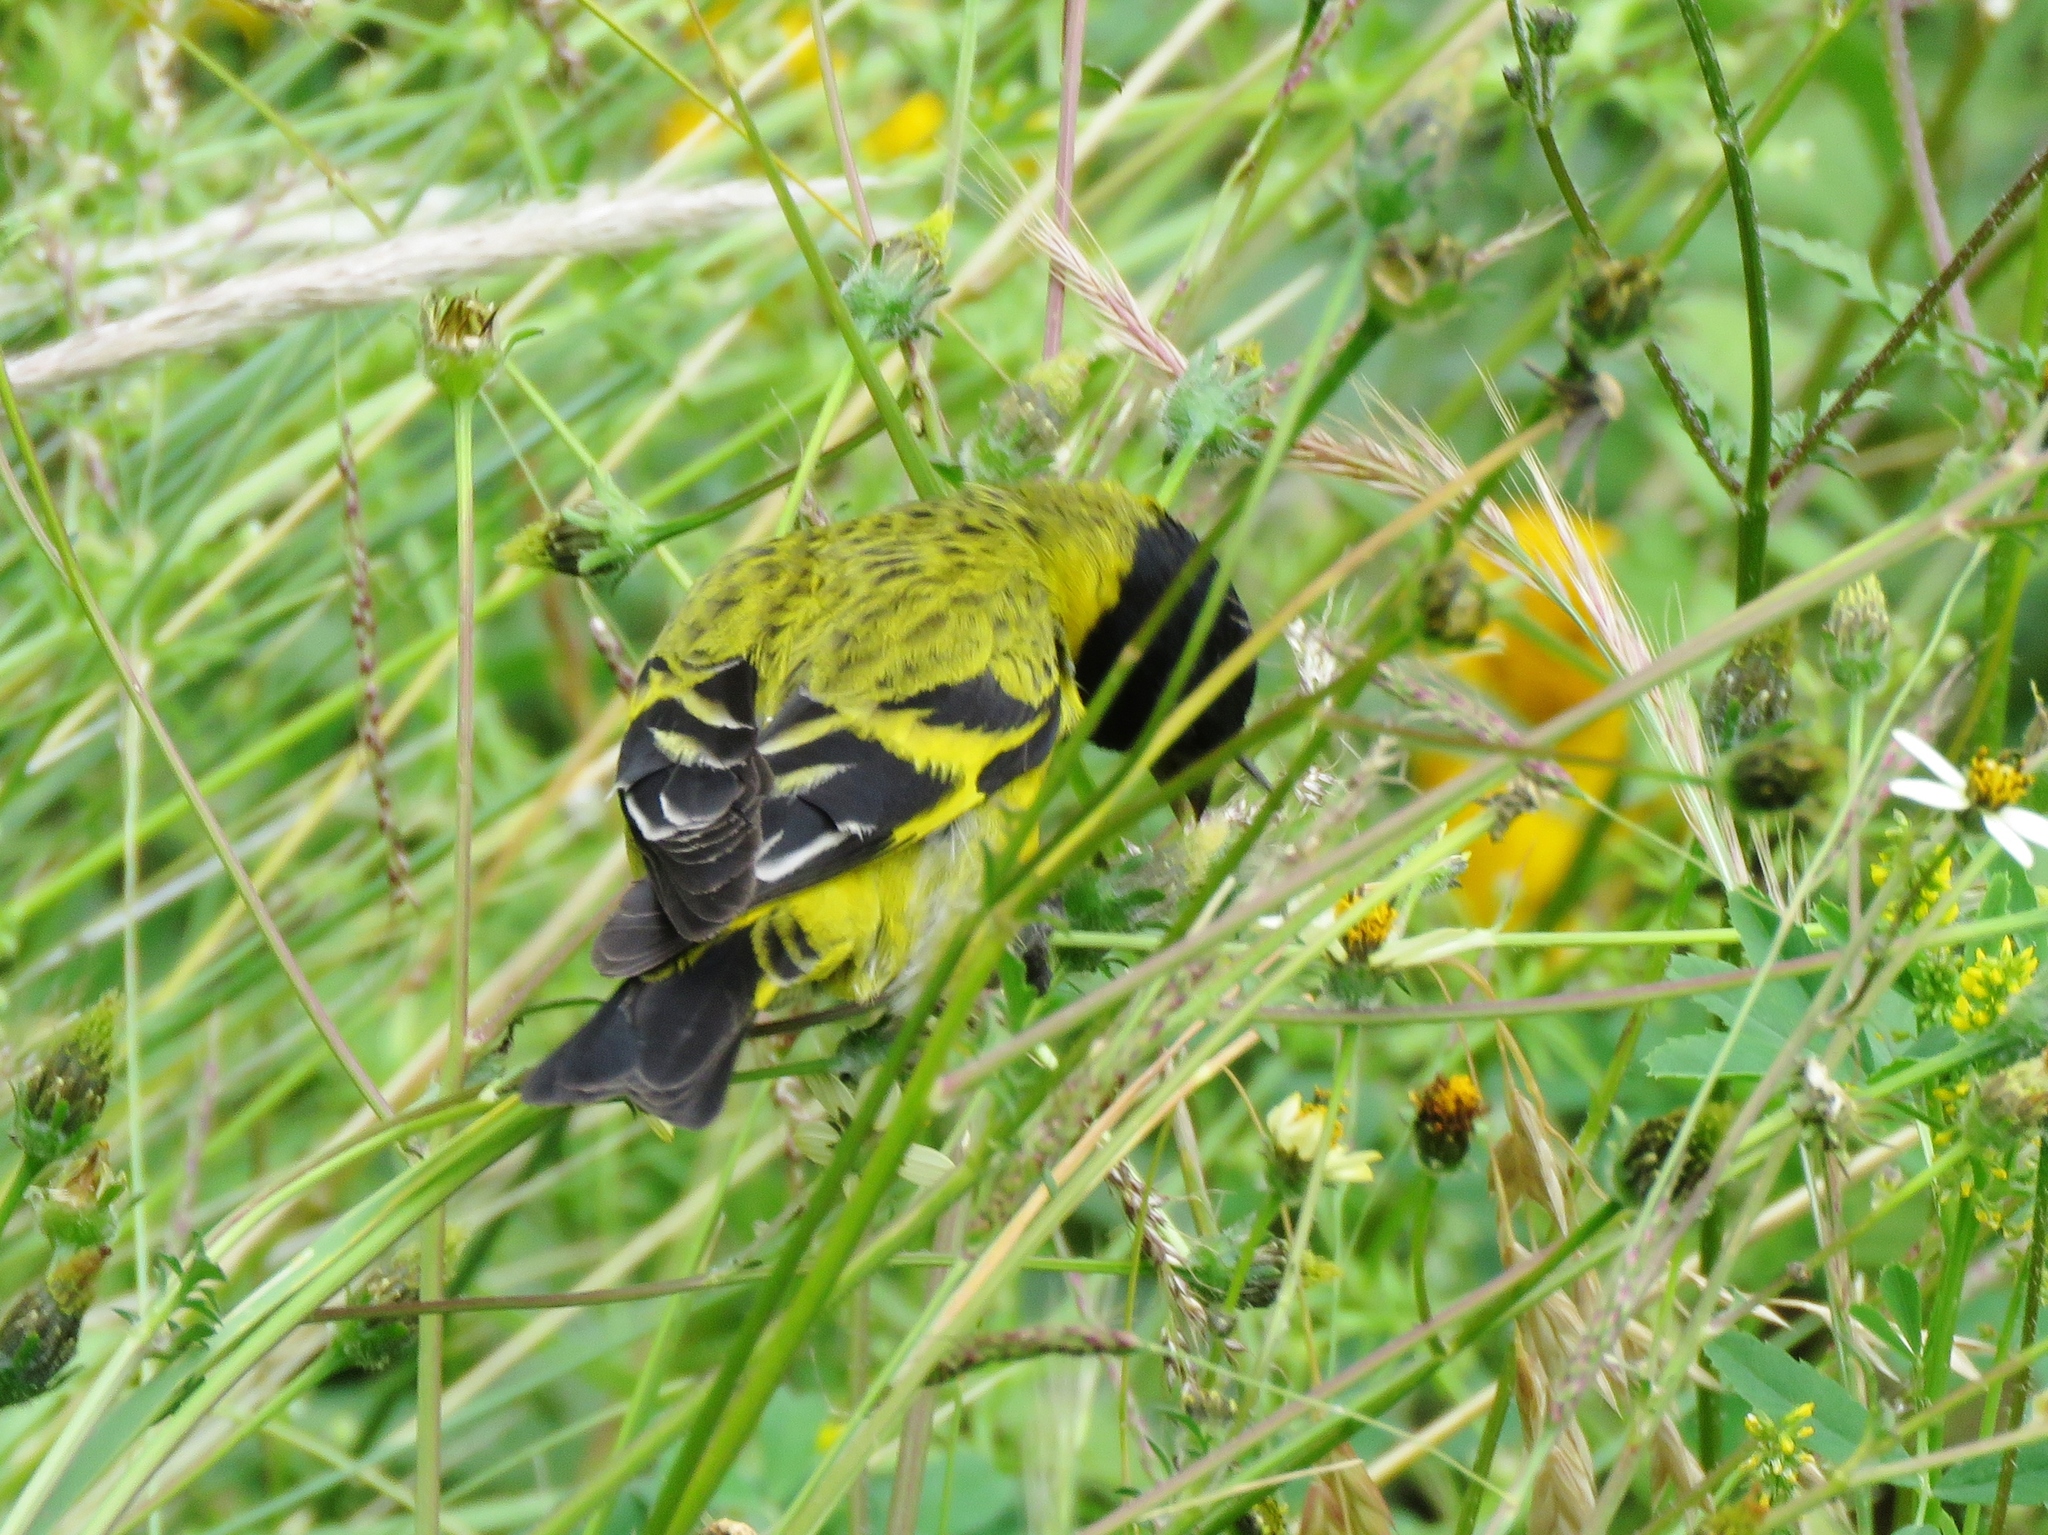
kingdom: Animalia
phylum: Chordata
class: Aves
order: Passeriformes
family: Fringillidae
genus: Spinus
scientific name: Spinus magellanicus
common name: Hooded siskin
